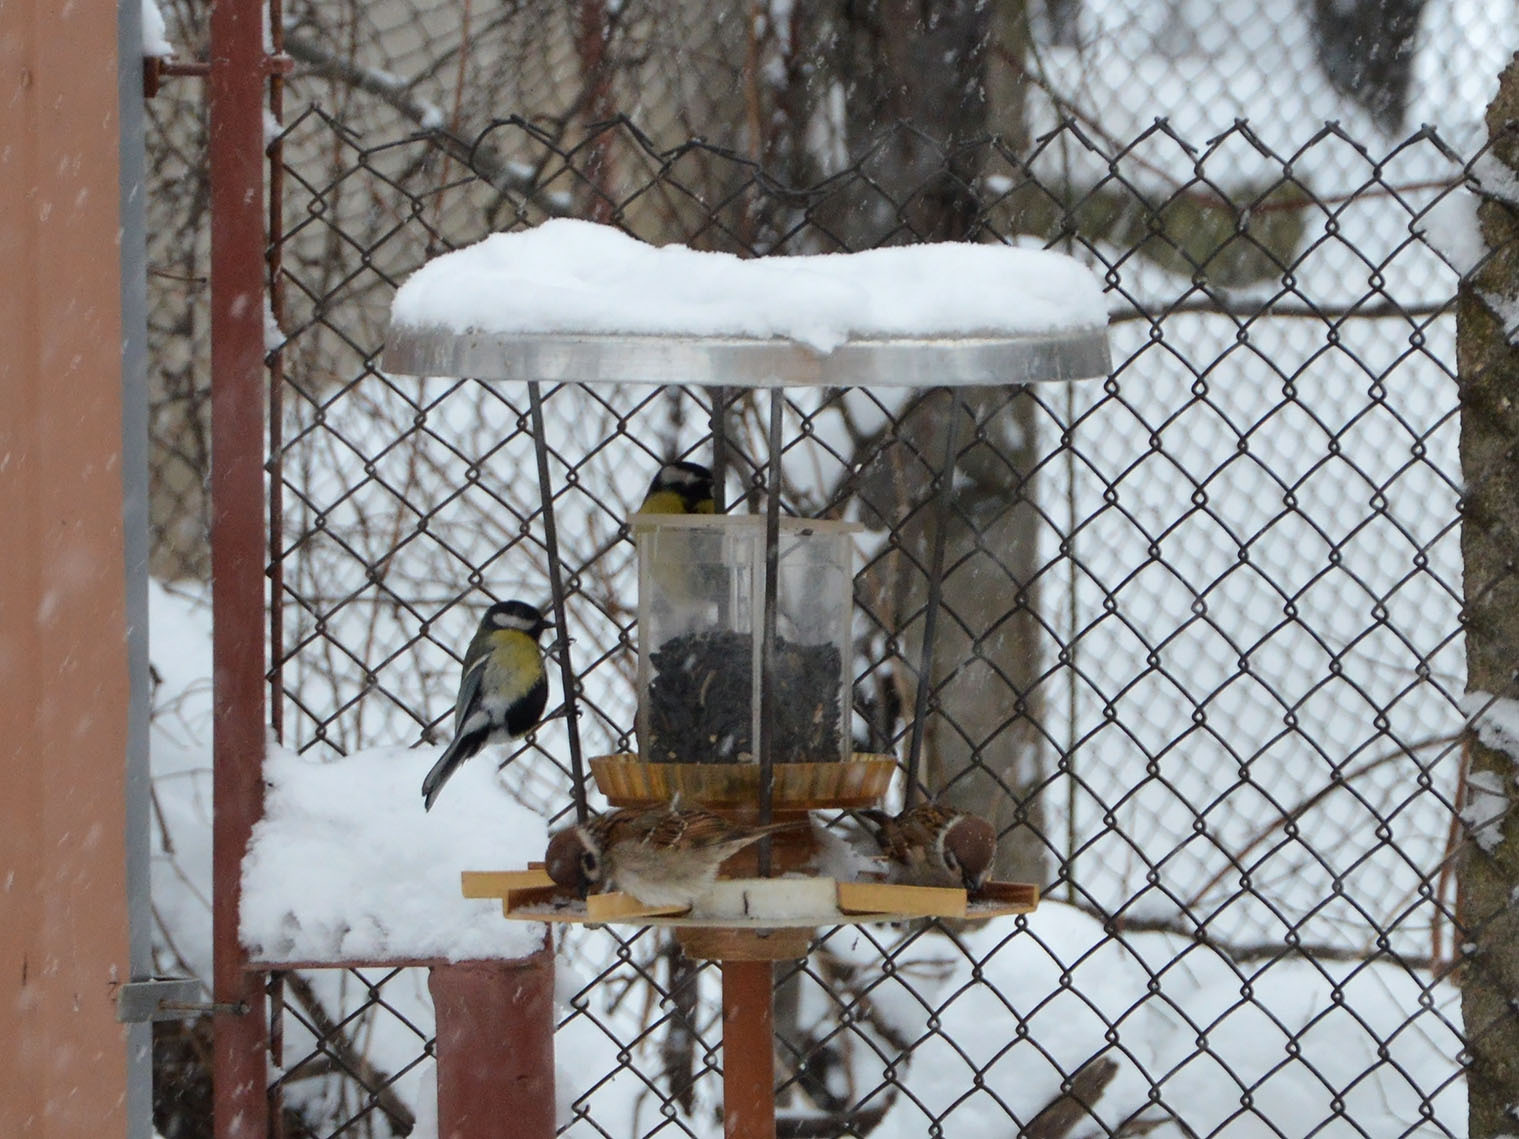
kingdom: Animalia
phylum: Chordata
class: Aves
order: Passeriformes
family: Paridae
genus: Parus
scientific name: Parus major
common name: Great tit
